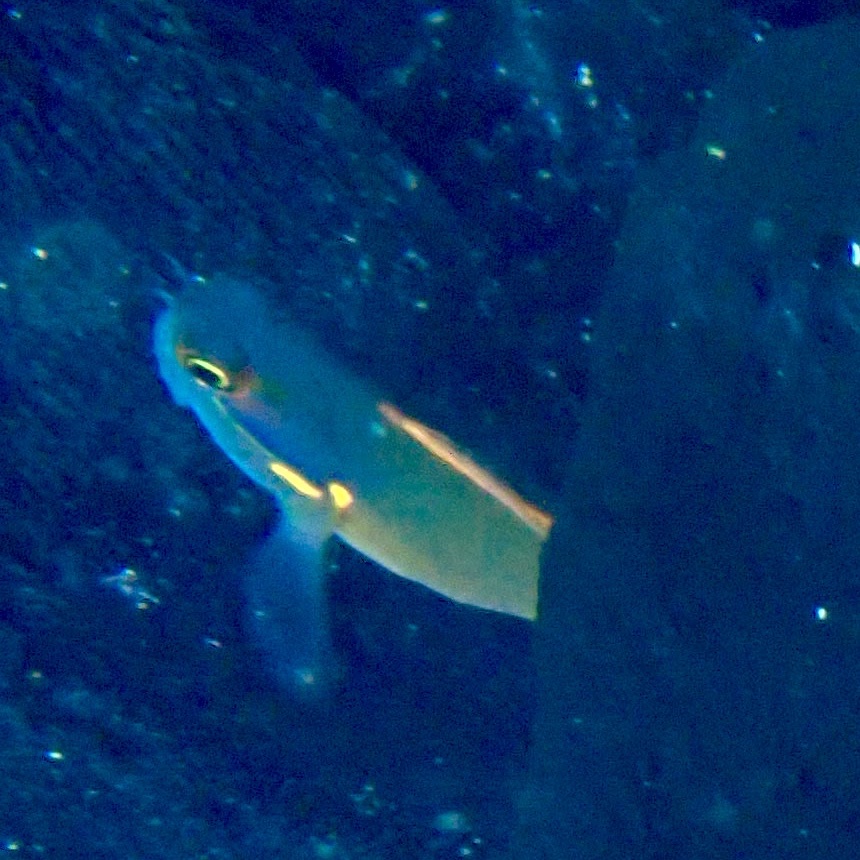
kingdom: Animalia
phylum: Chordata
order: Perciformes
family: Blenniidae
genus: Ecsenius
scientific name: Ecsenius stigmatura
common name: Tail-spot combtooth-blenny
